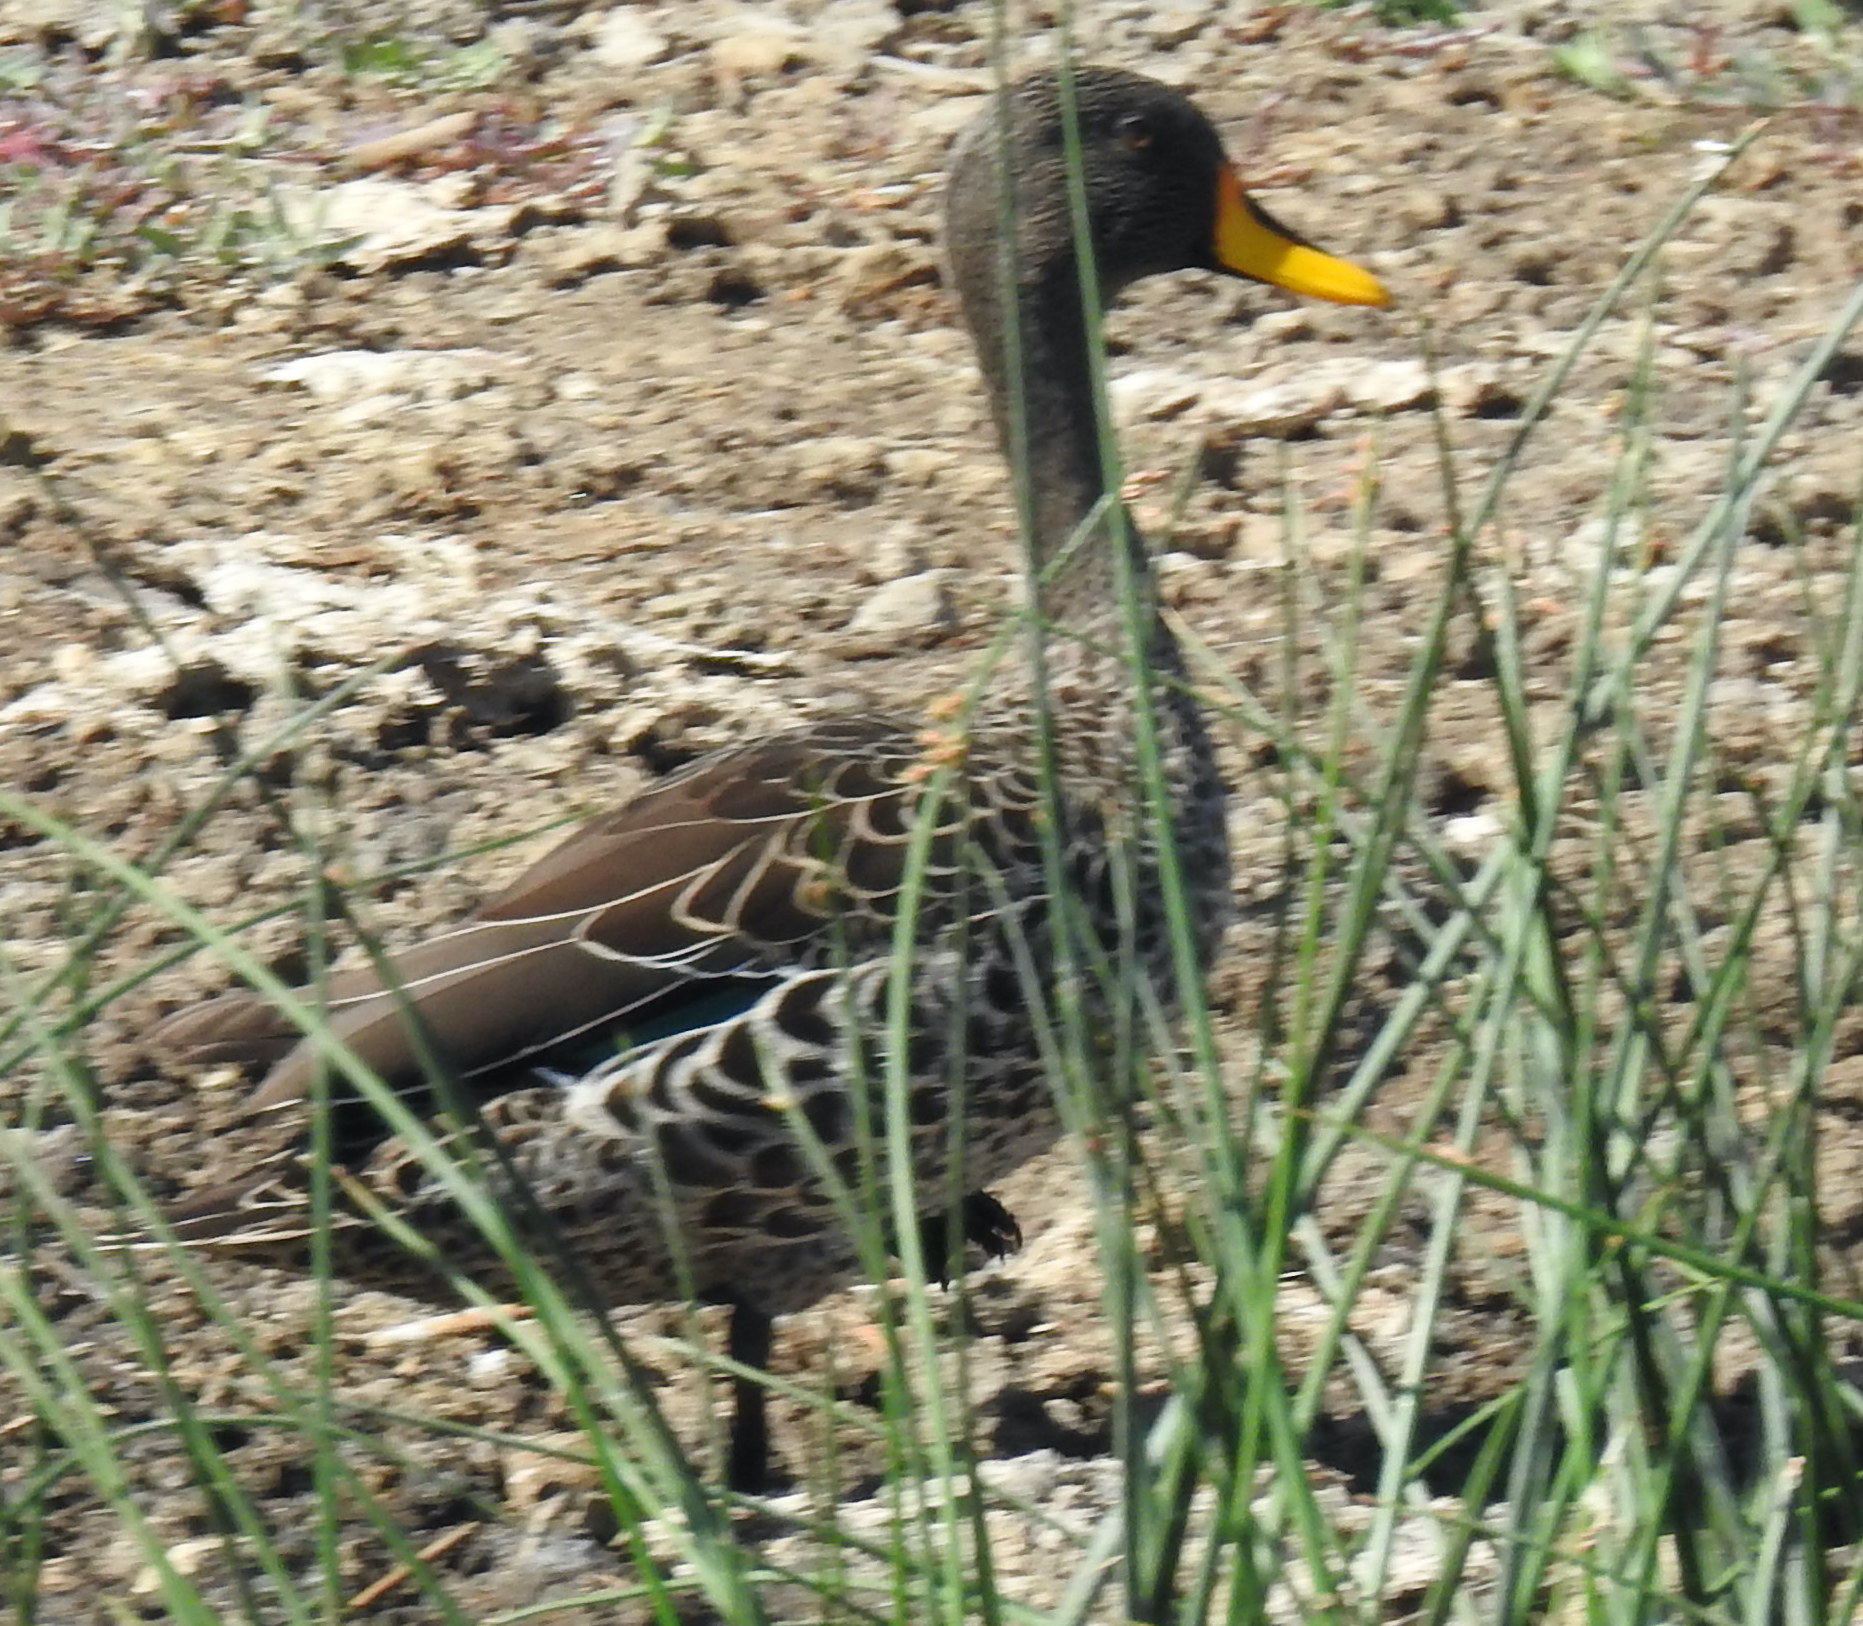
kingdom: Animalia
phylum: Chordata
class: Aves
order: Anseriformes
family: Anatidae
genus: Anas
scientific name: Anas undulata
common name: Yellow-billed duck
